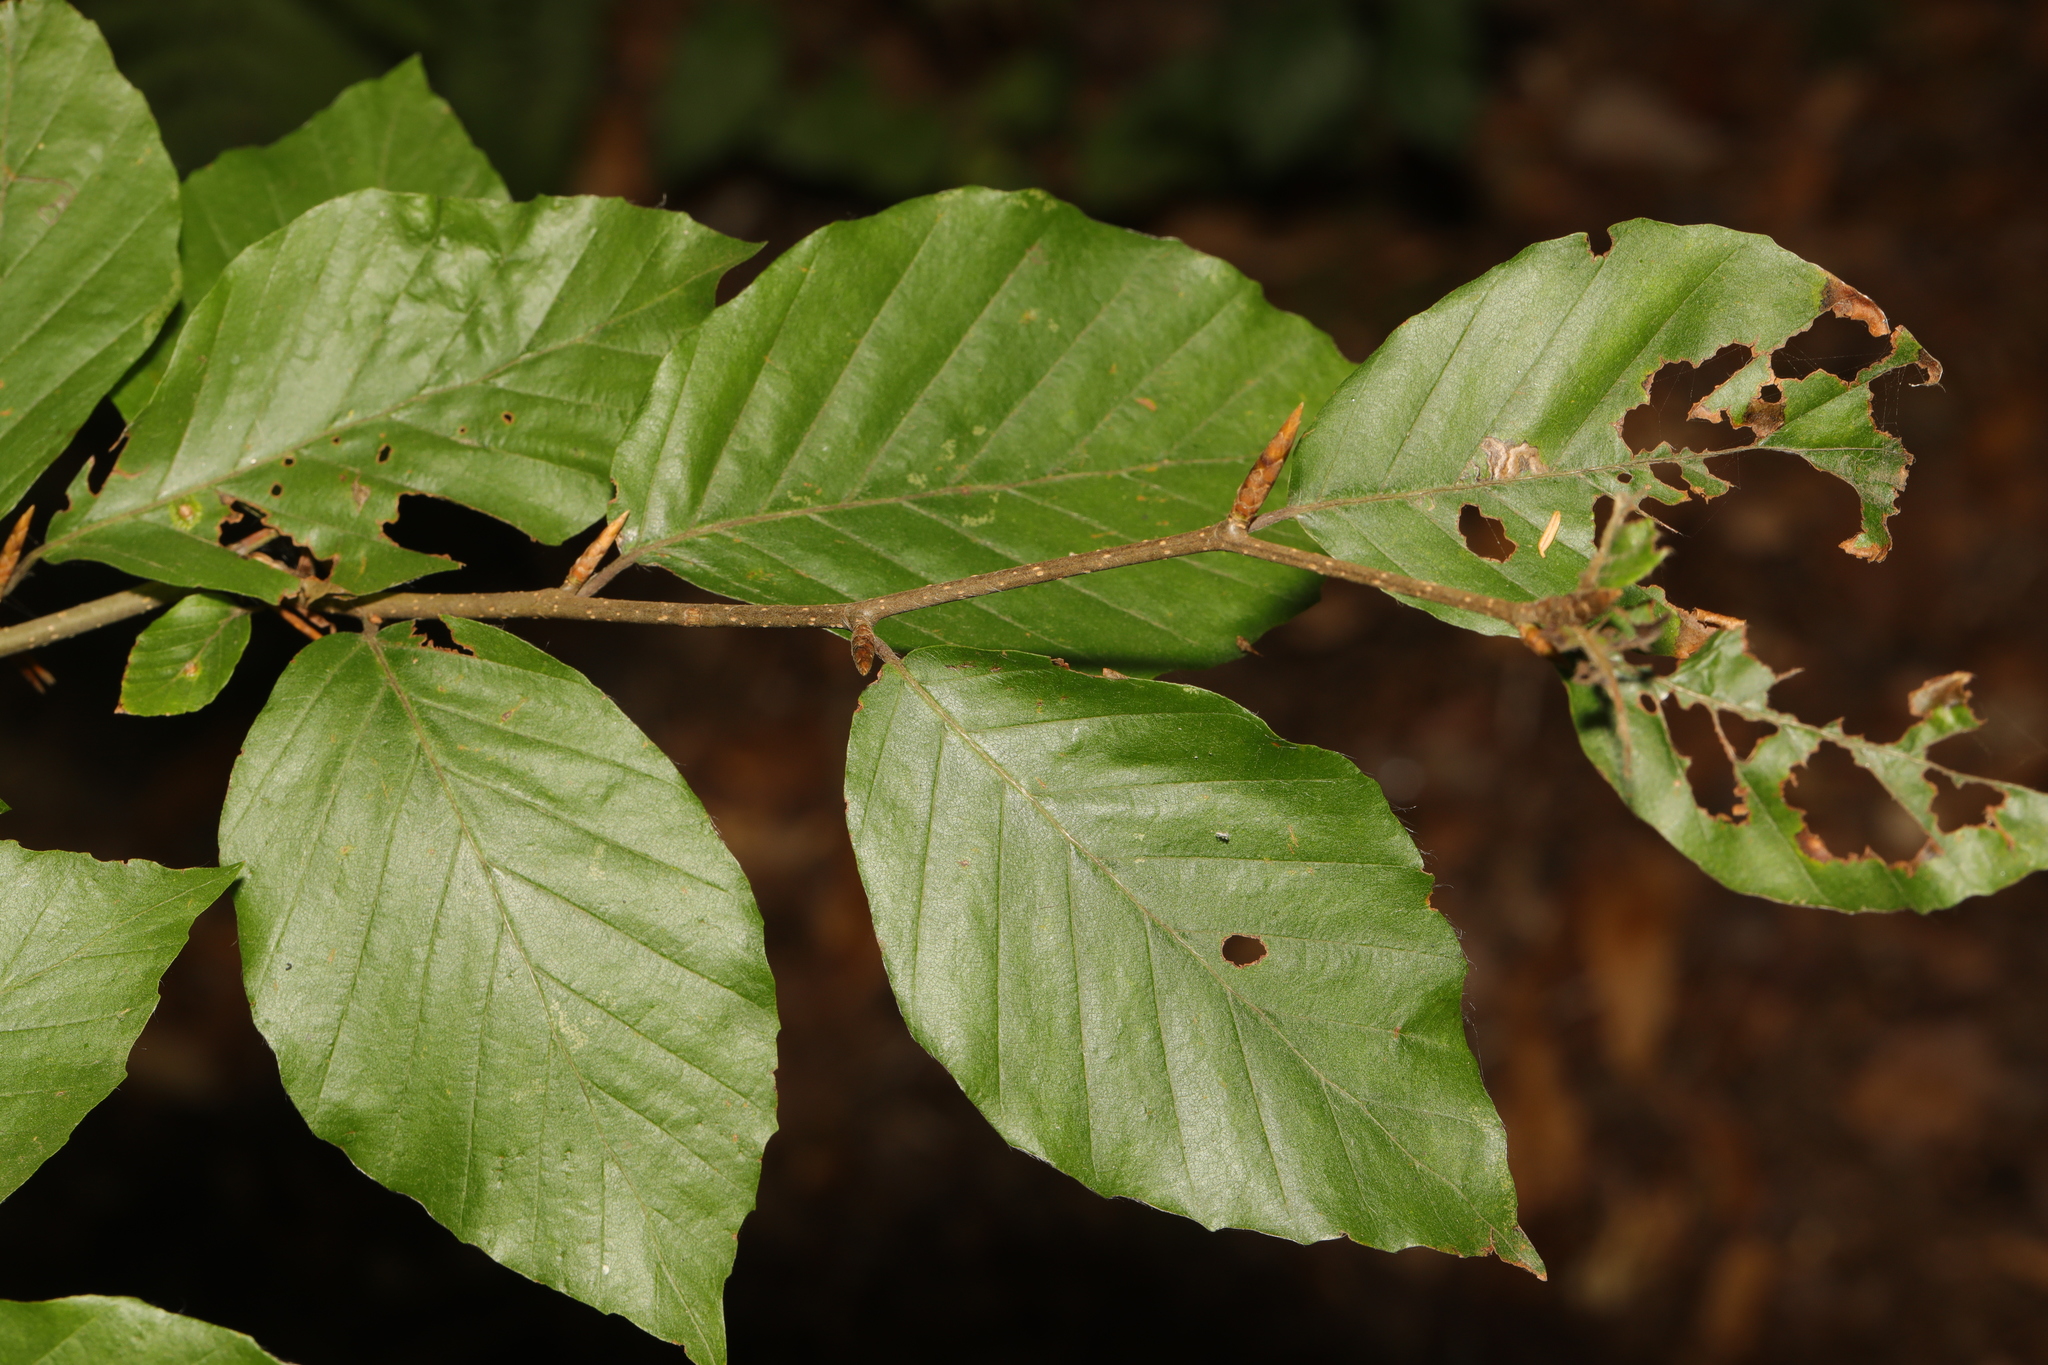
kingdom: Plantae
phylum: Tracheophyta
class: Magnoliopsida
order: Fagales
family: Fagaceae
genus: Fagus
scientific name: Fagus sylvatica
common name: Beech
